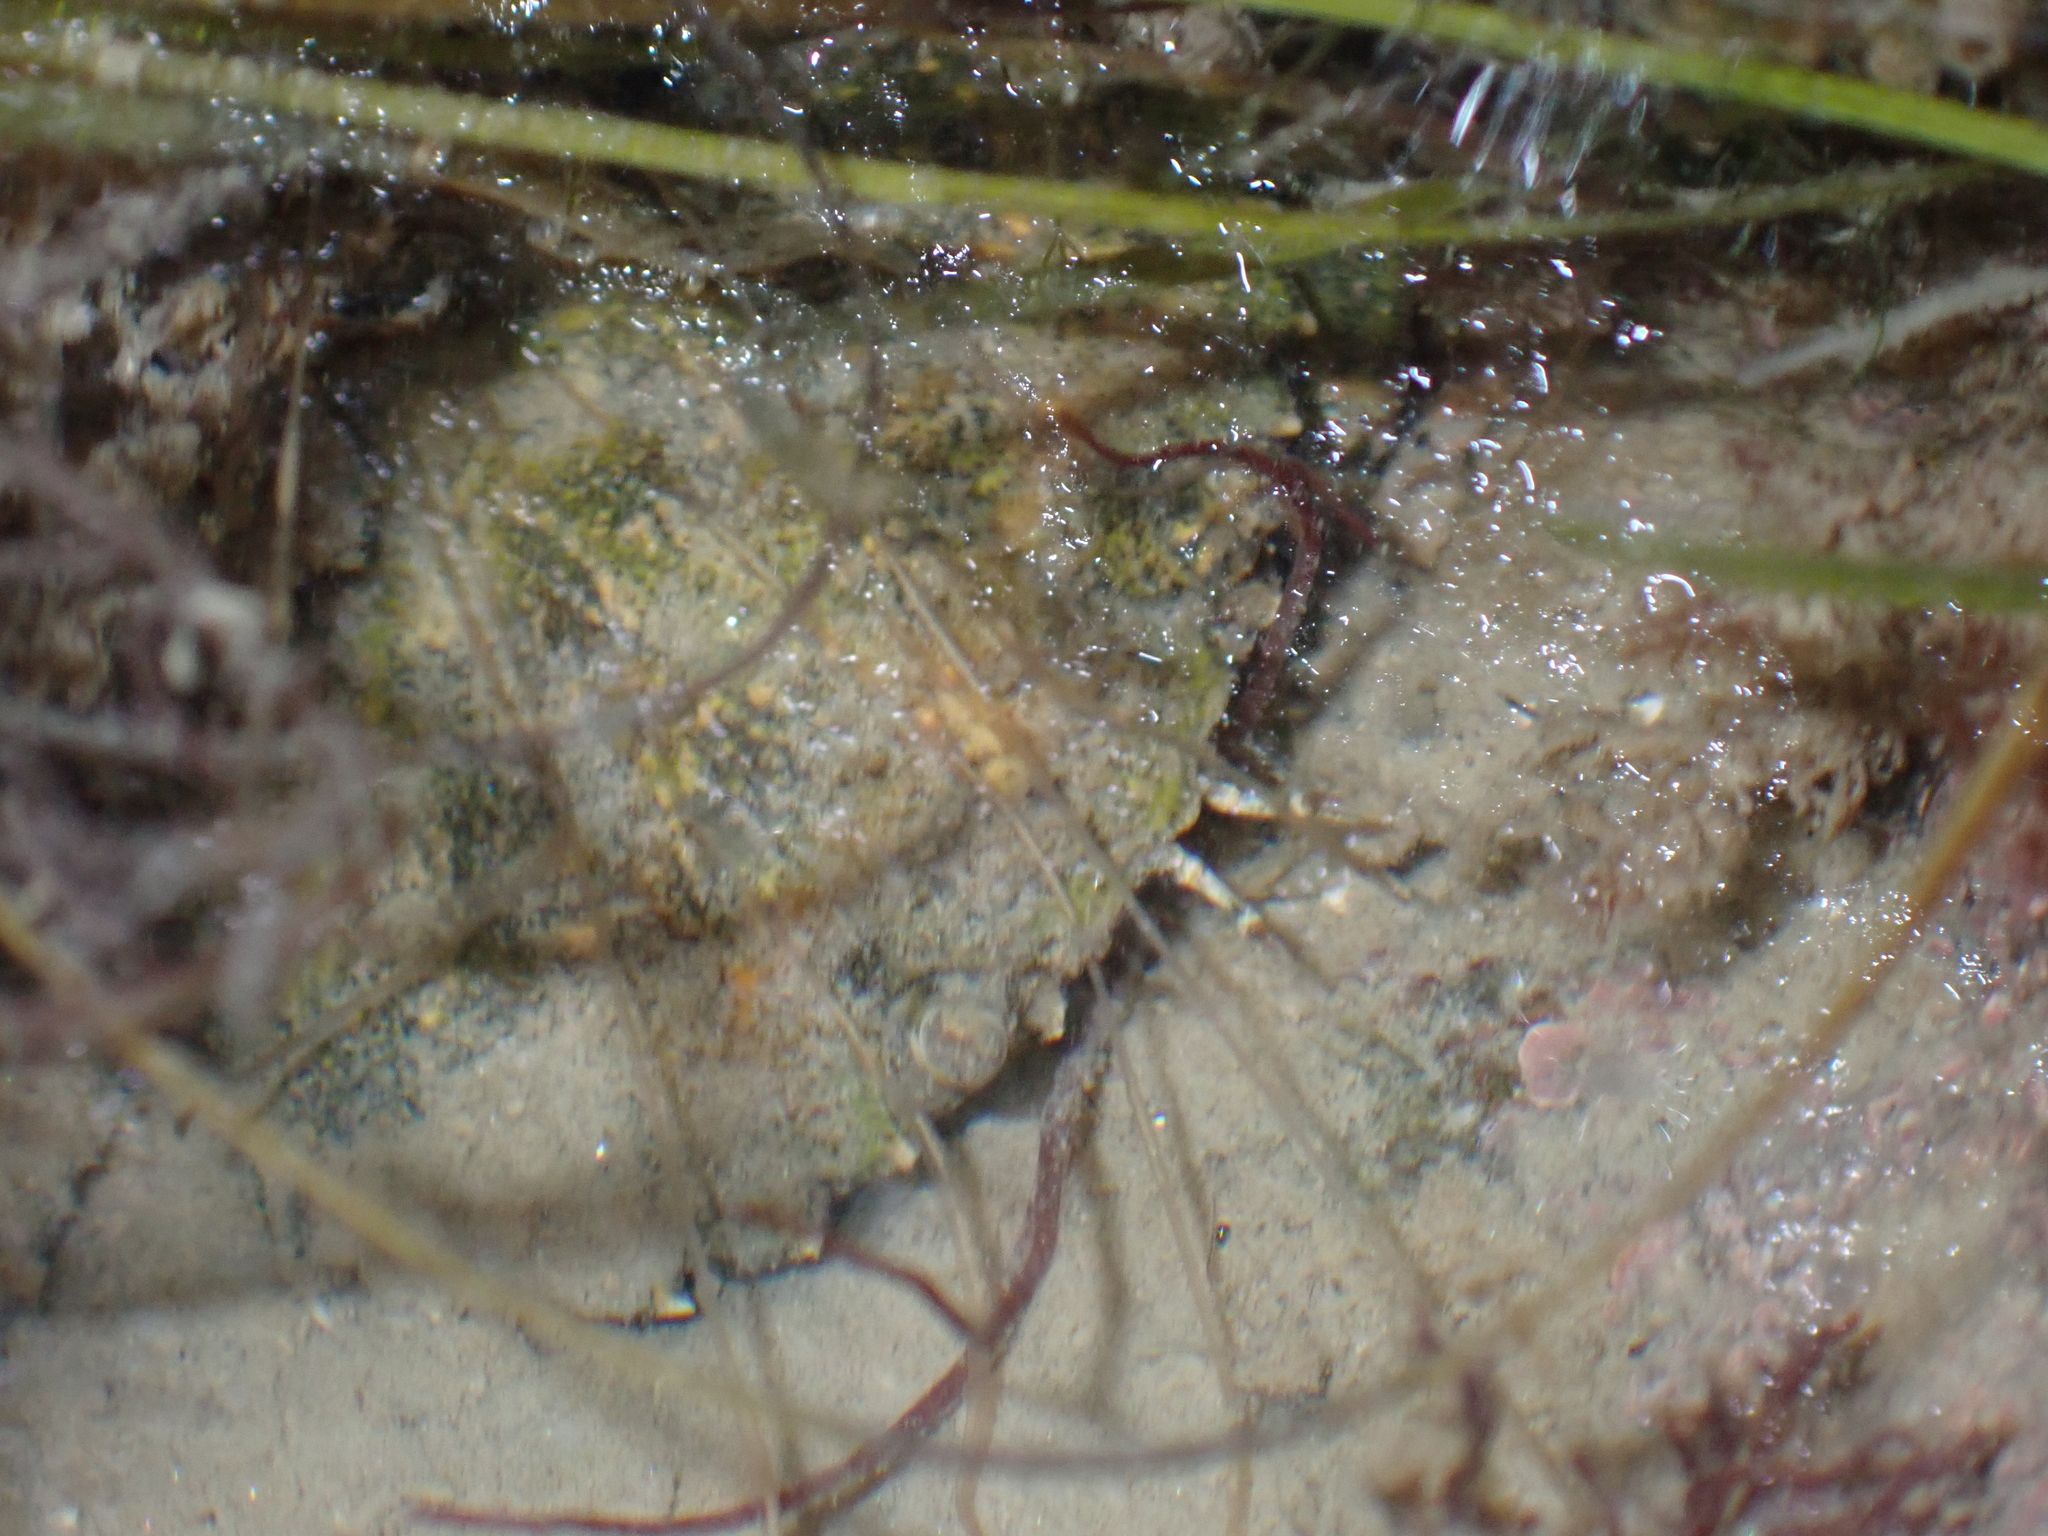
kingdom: Animalia
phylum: Arthropoda
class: Malacostraca
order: Decapoda
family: Carcinidae
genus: Carcinus
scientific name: Carcinus maenas
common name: European green crab
